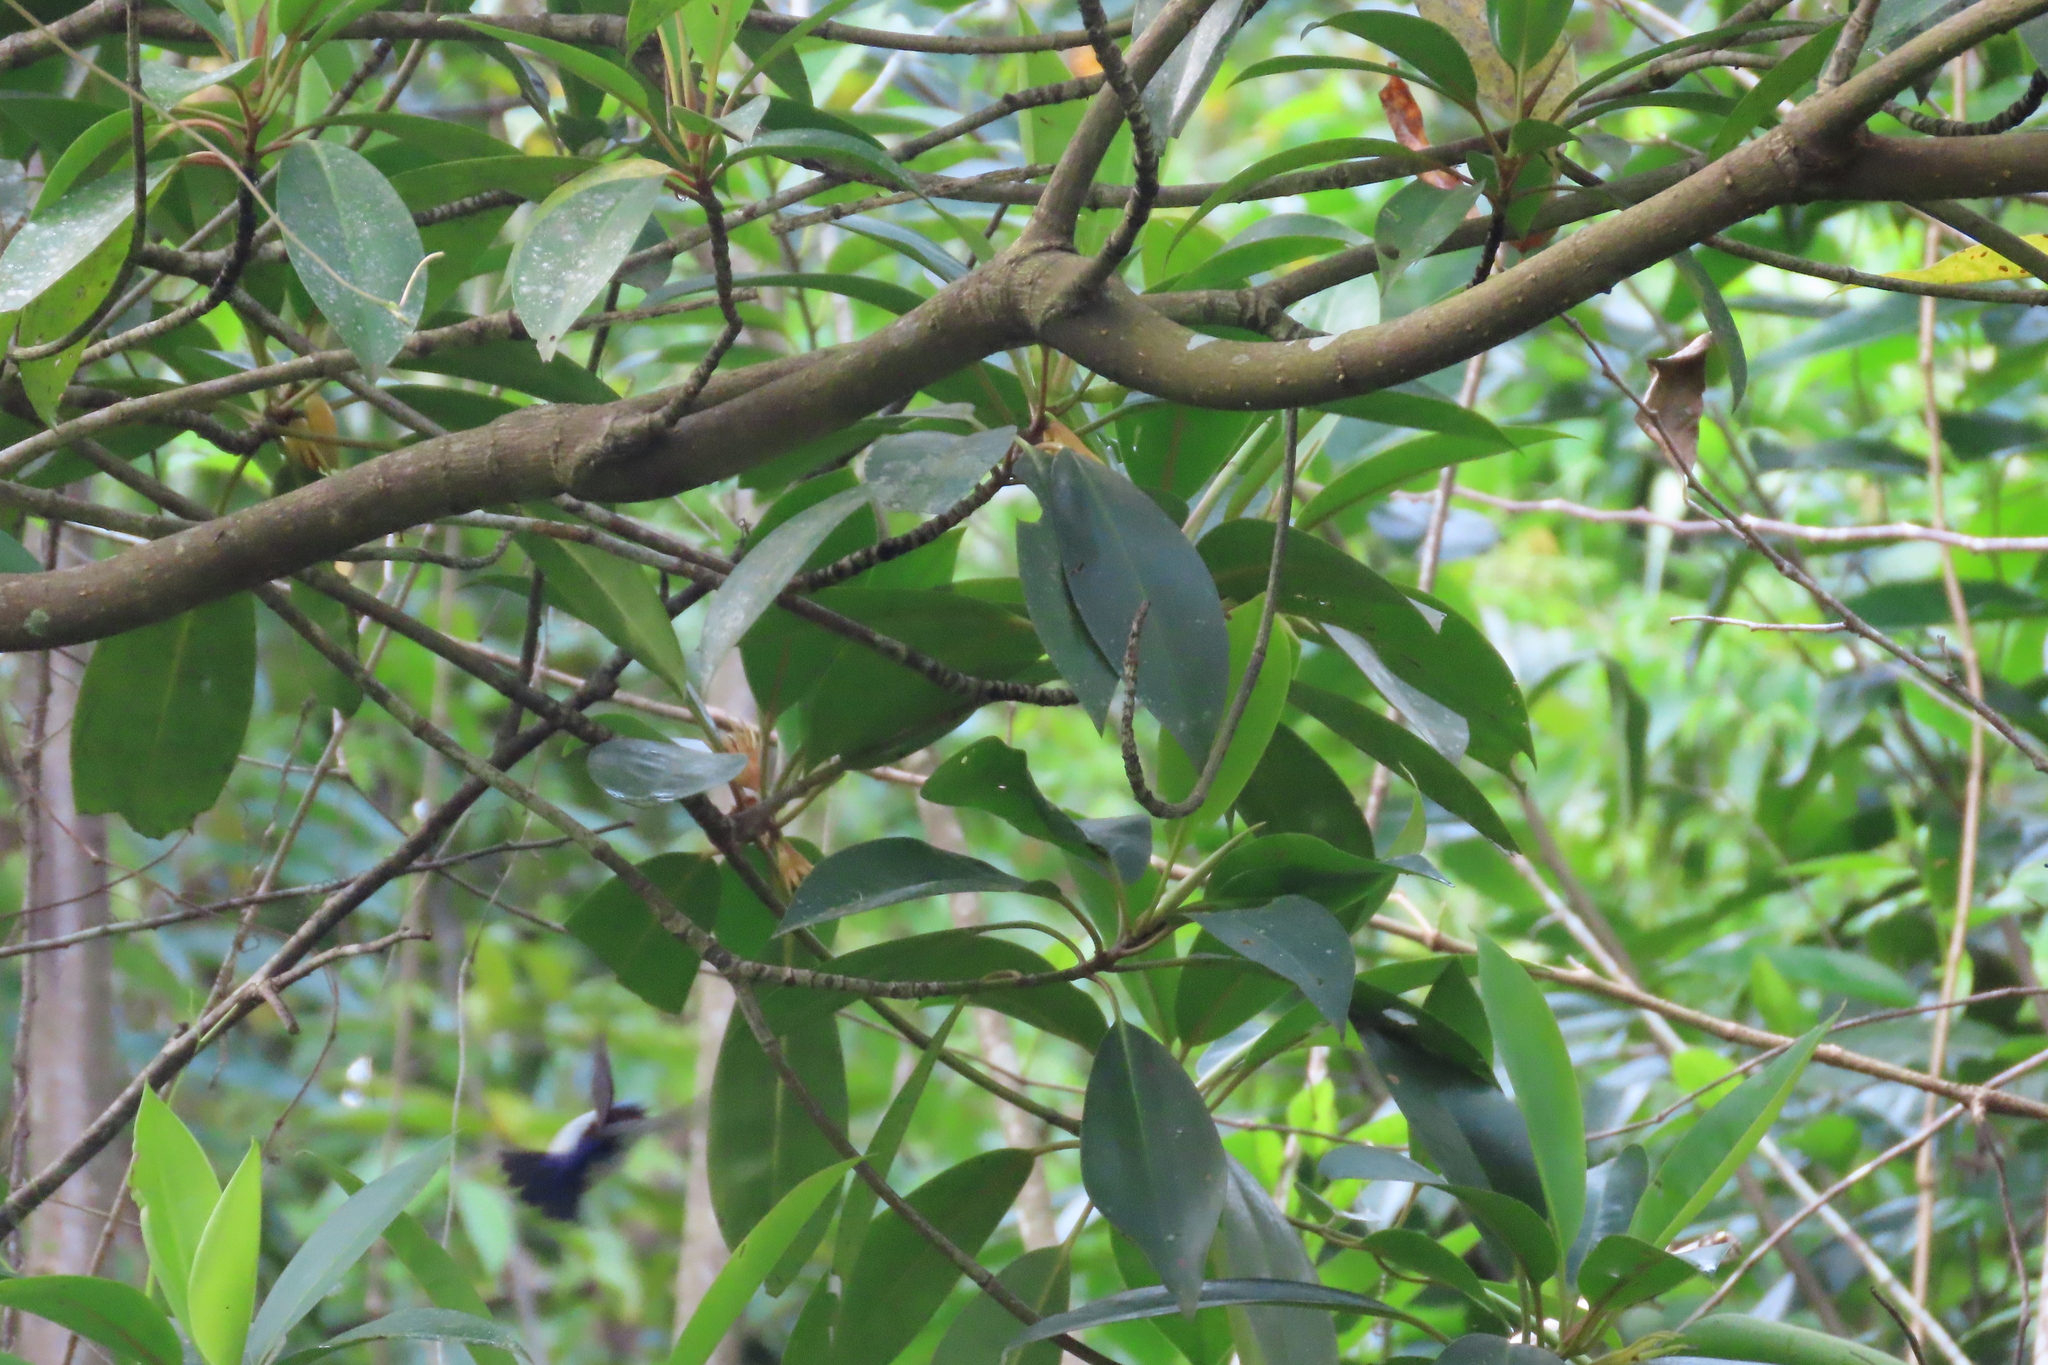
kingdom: Animalia
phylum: Chordata
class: Aves
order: Passeriformes
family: Nectariniidae
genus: Leptocoma
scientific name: Leptocoma zeylonica
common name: Purple-rumped sunbird
